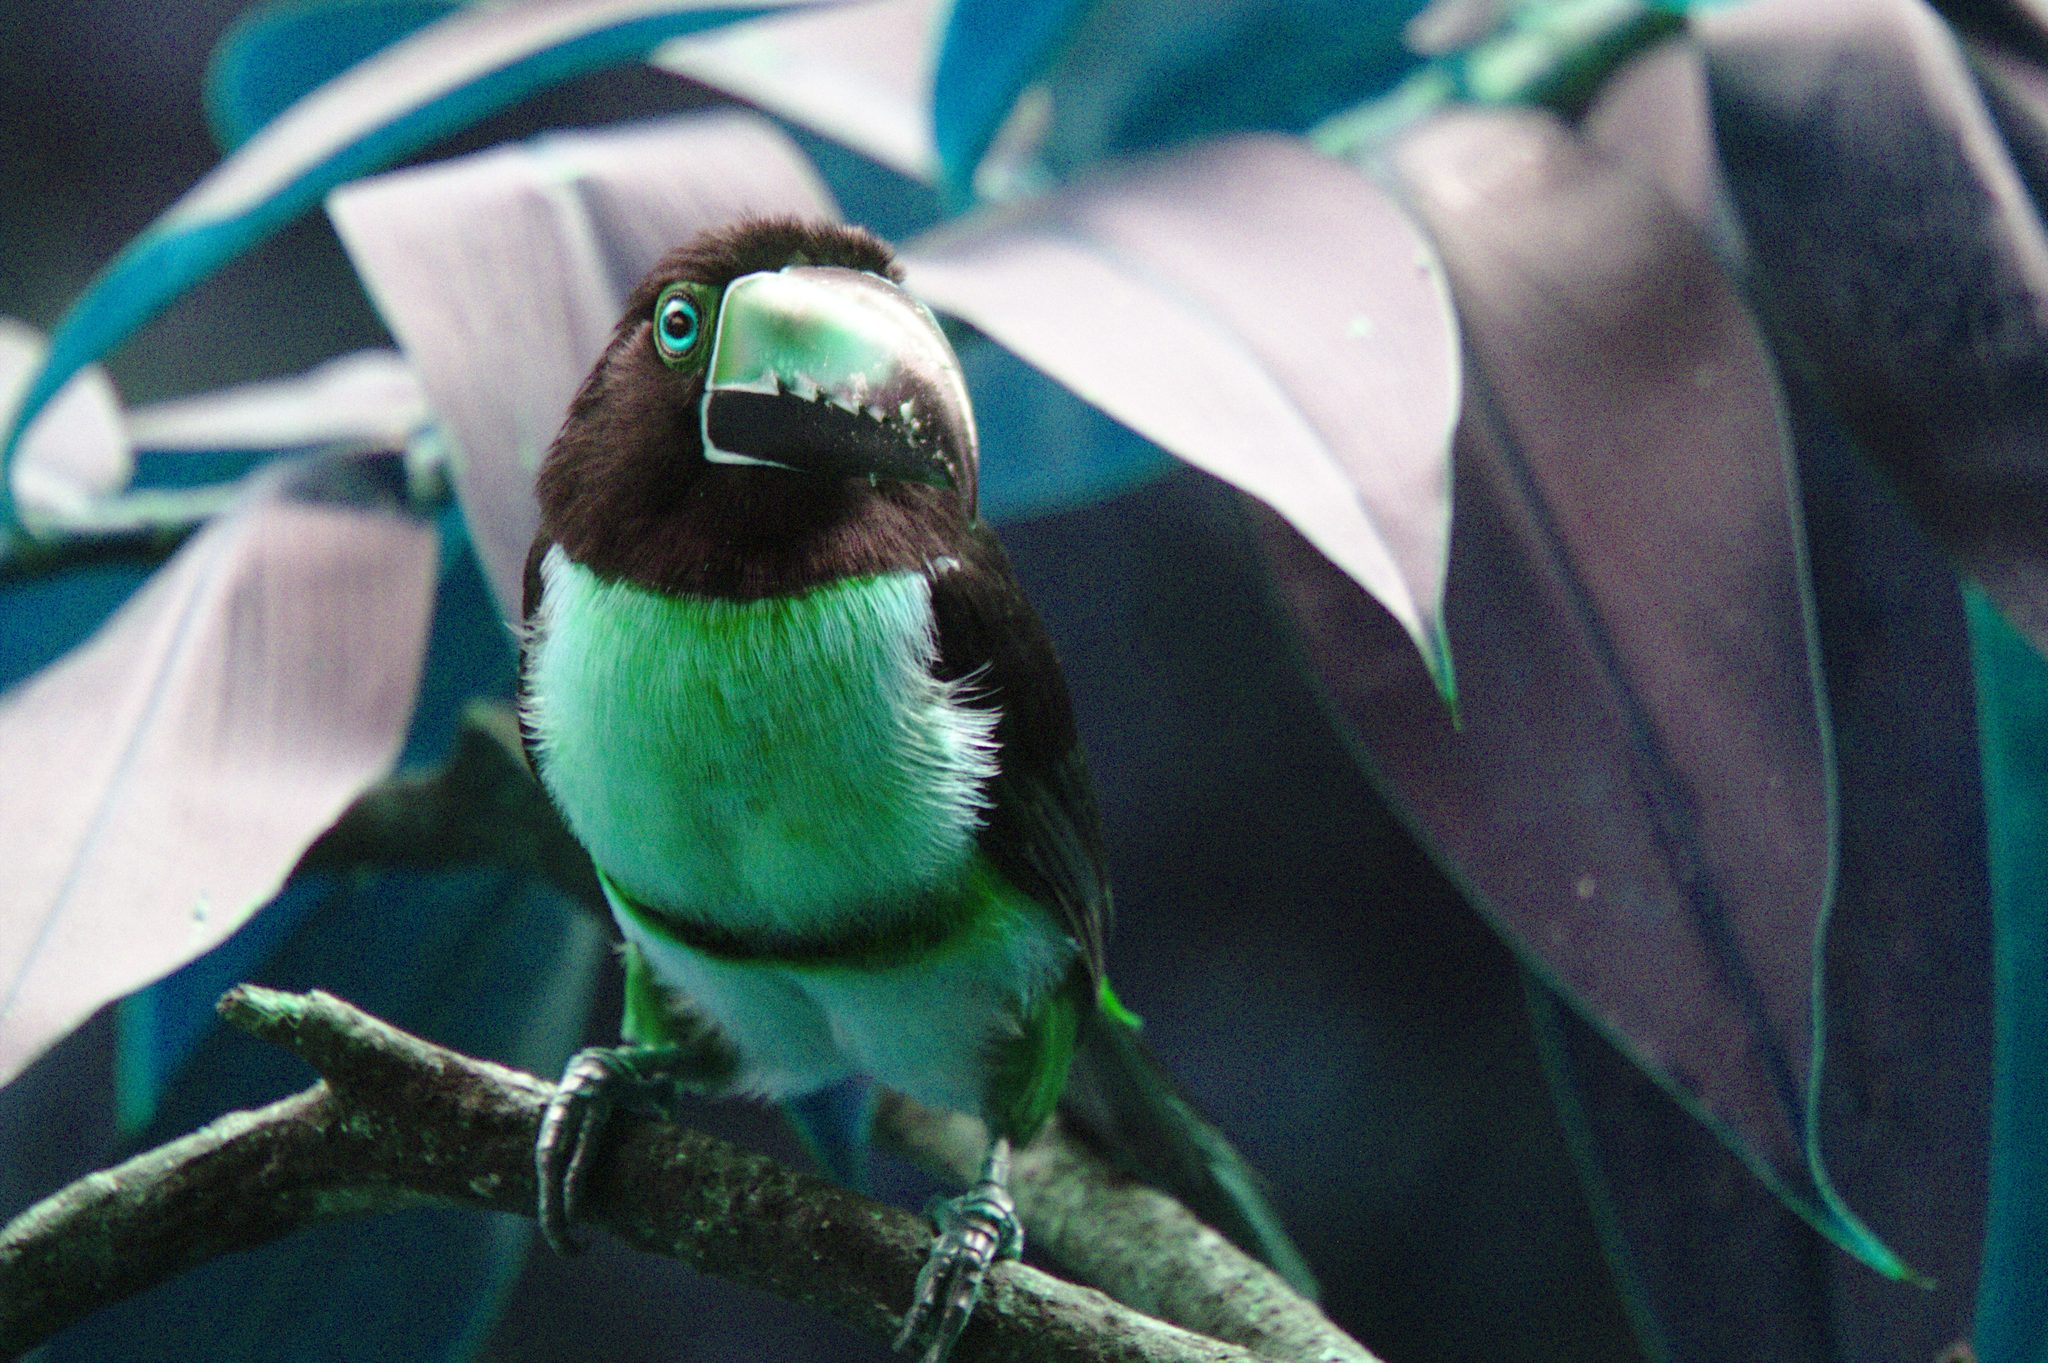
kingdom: Animalia
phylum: Chordata
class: Aves
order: Piciformes
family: Ramphastidae
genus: Pteroglossus
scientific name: Pteroglossus torquatus
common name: Collared aracari
